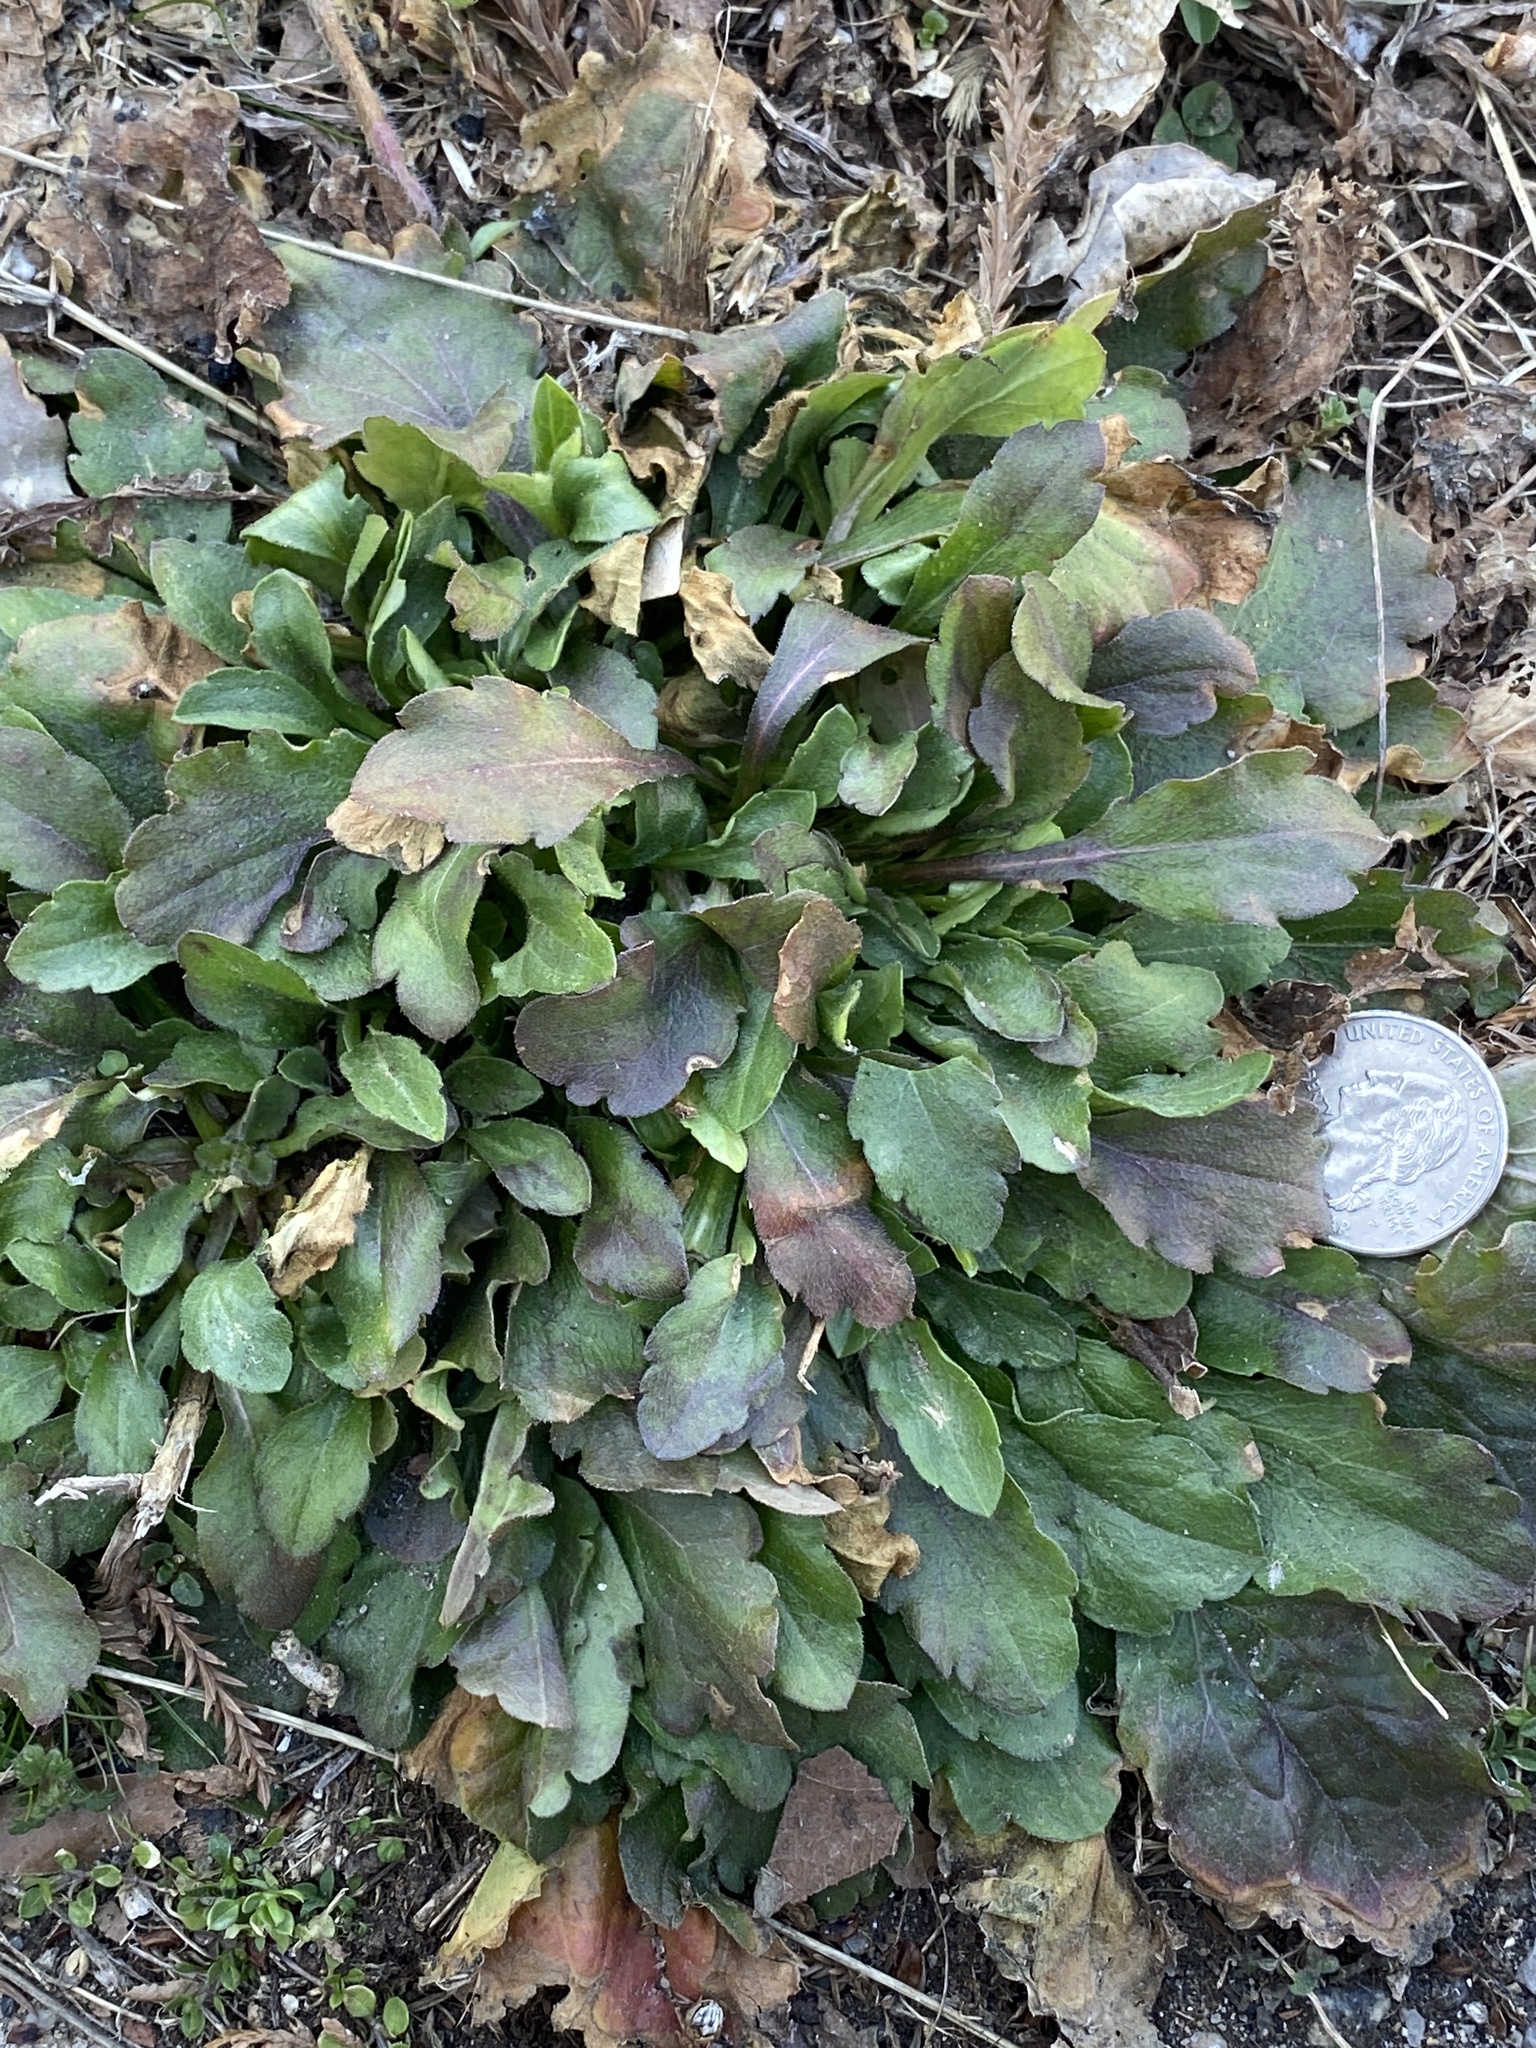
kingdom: Plantae
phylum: Tracheophyta
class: Magnoliopsida
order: Asterales
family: Asteraceae
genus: Erigeron
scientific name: Erigeron canadensis
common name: Canadian fleabane
